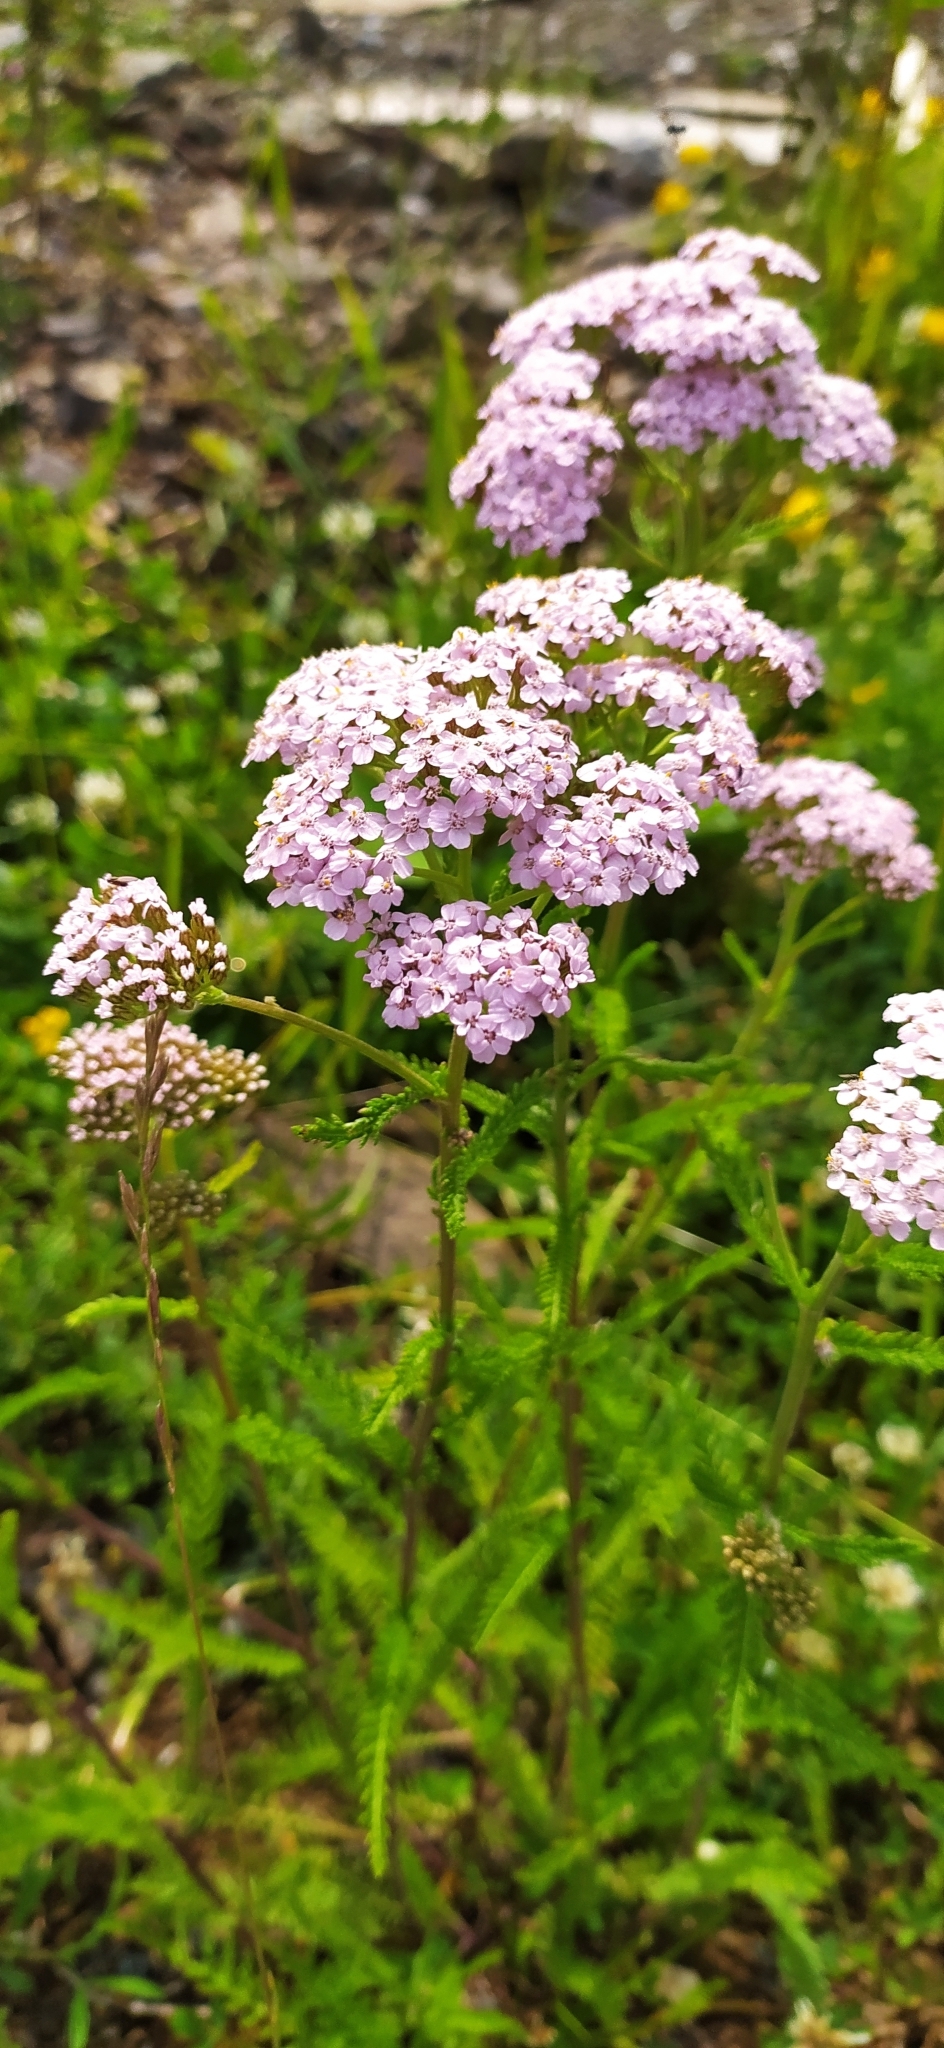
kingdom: Plantae
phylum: Tracheophyta
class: Magnoliopsida
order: Asterales
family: Asteraceae
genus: Achillea
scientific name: Achillea millefolium
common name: Yarrow
